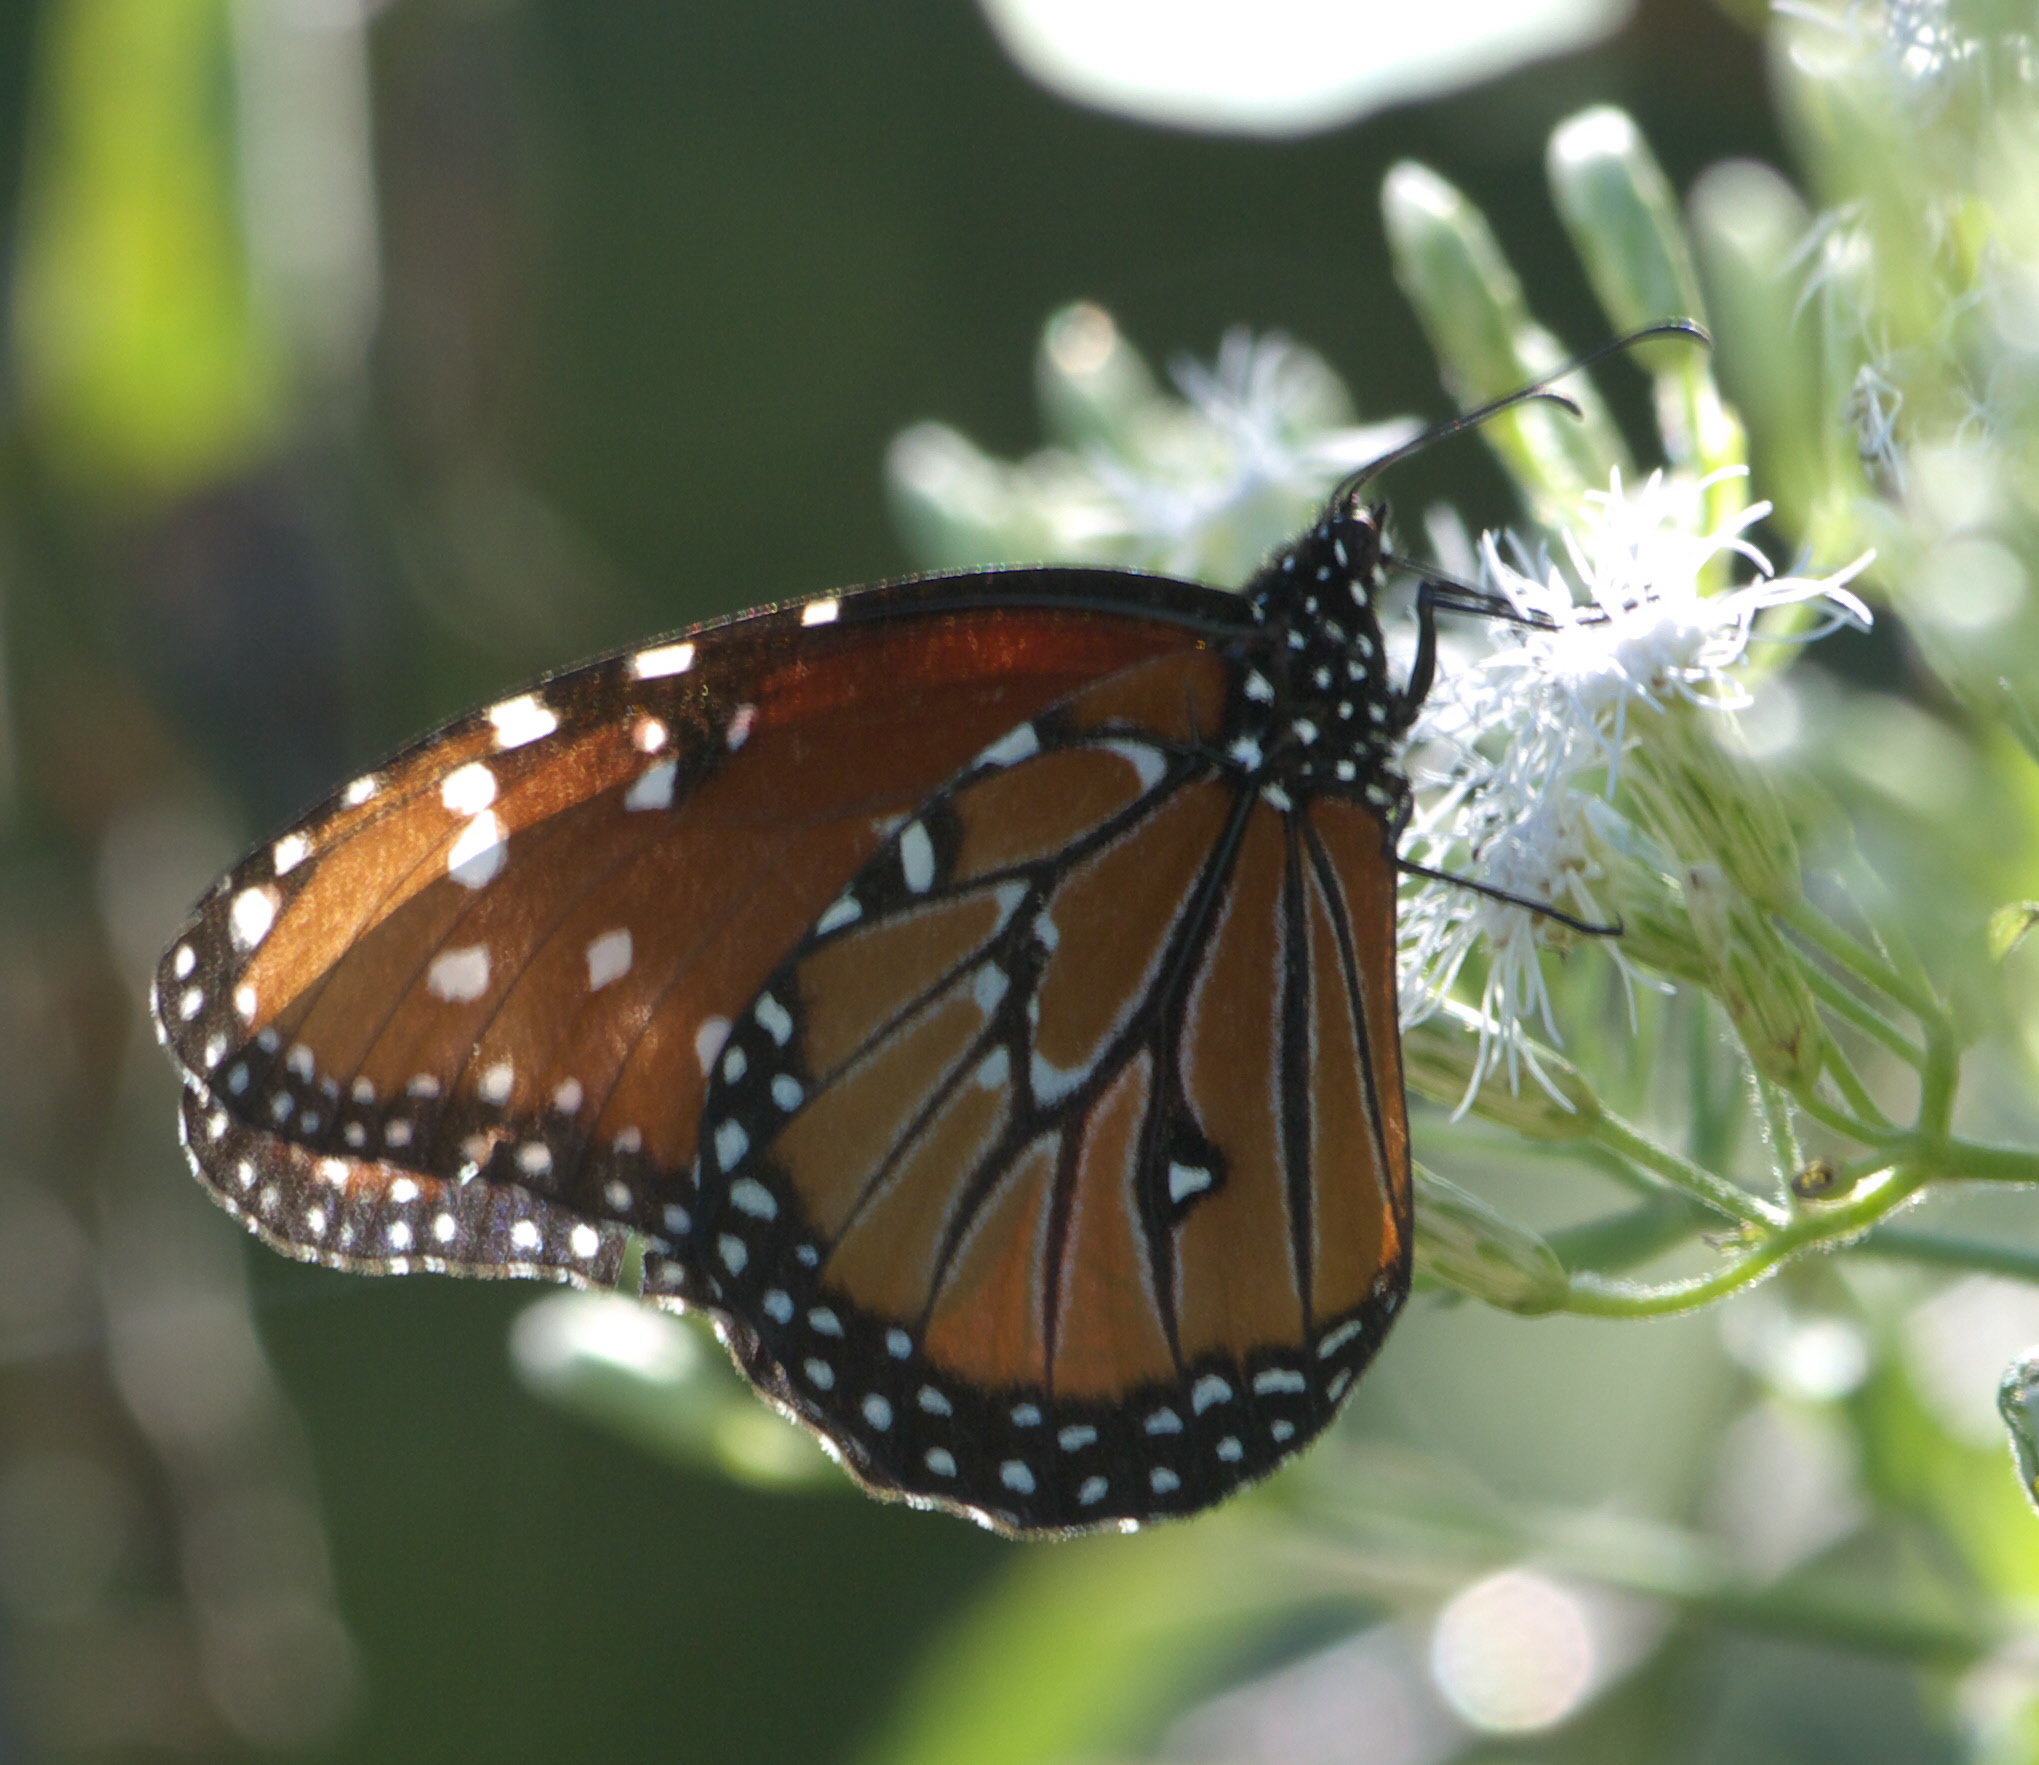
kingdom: Animalia
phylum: Arthropoda
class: Insecta
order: Lepidoptera
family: Nymphalidae
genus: Danaus
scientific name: Danaus gilippus
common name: Queen
